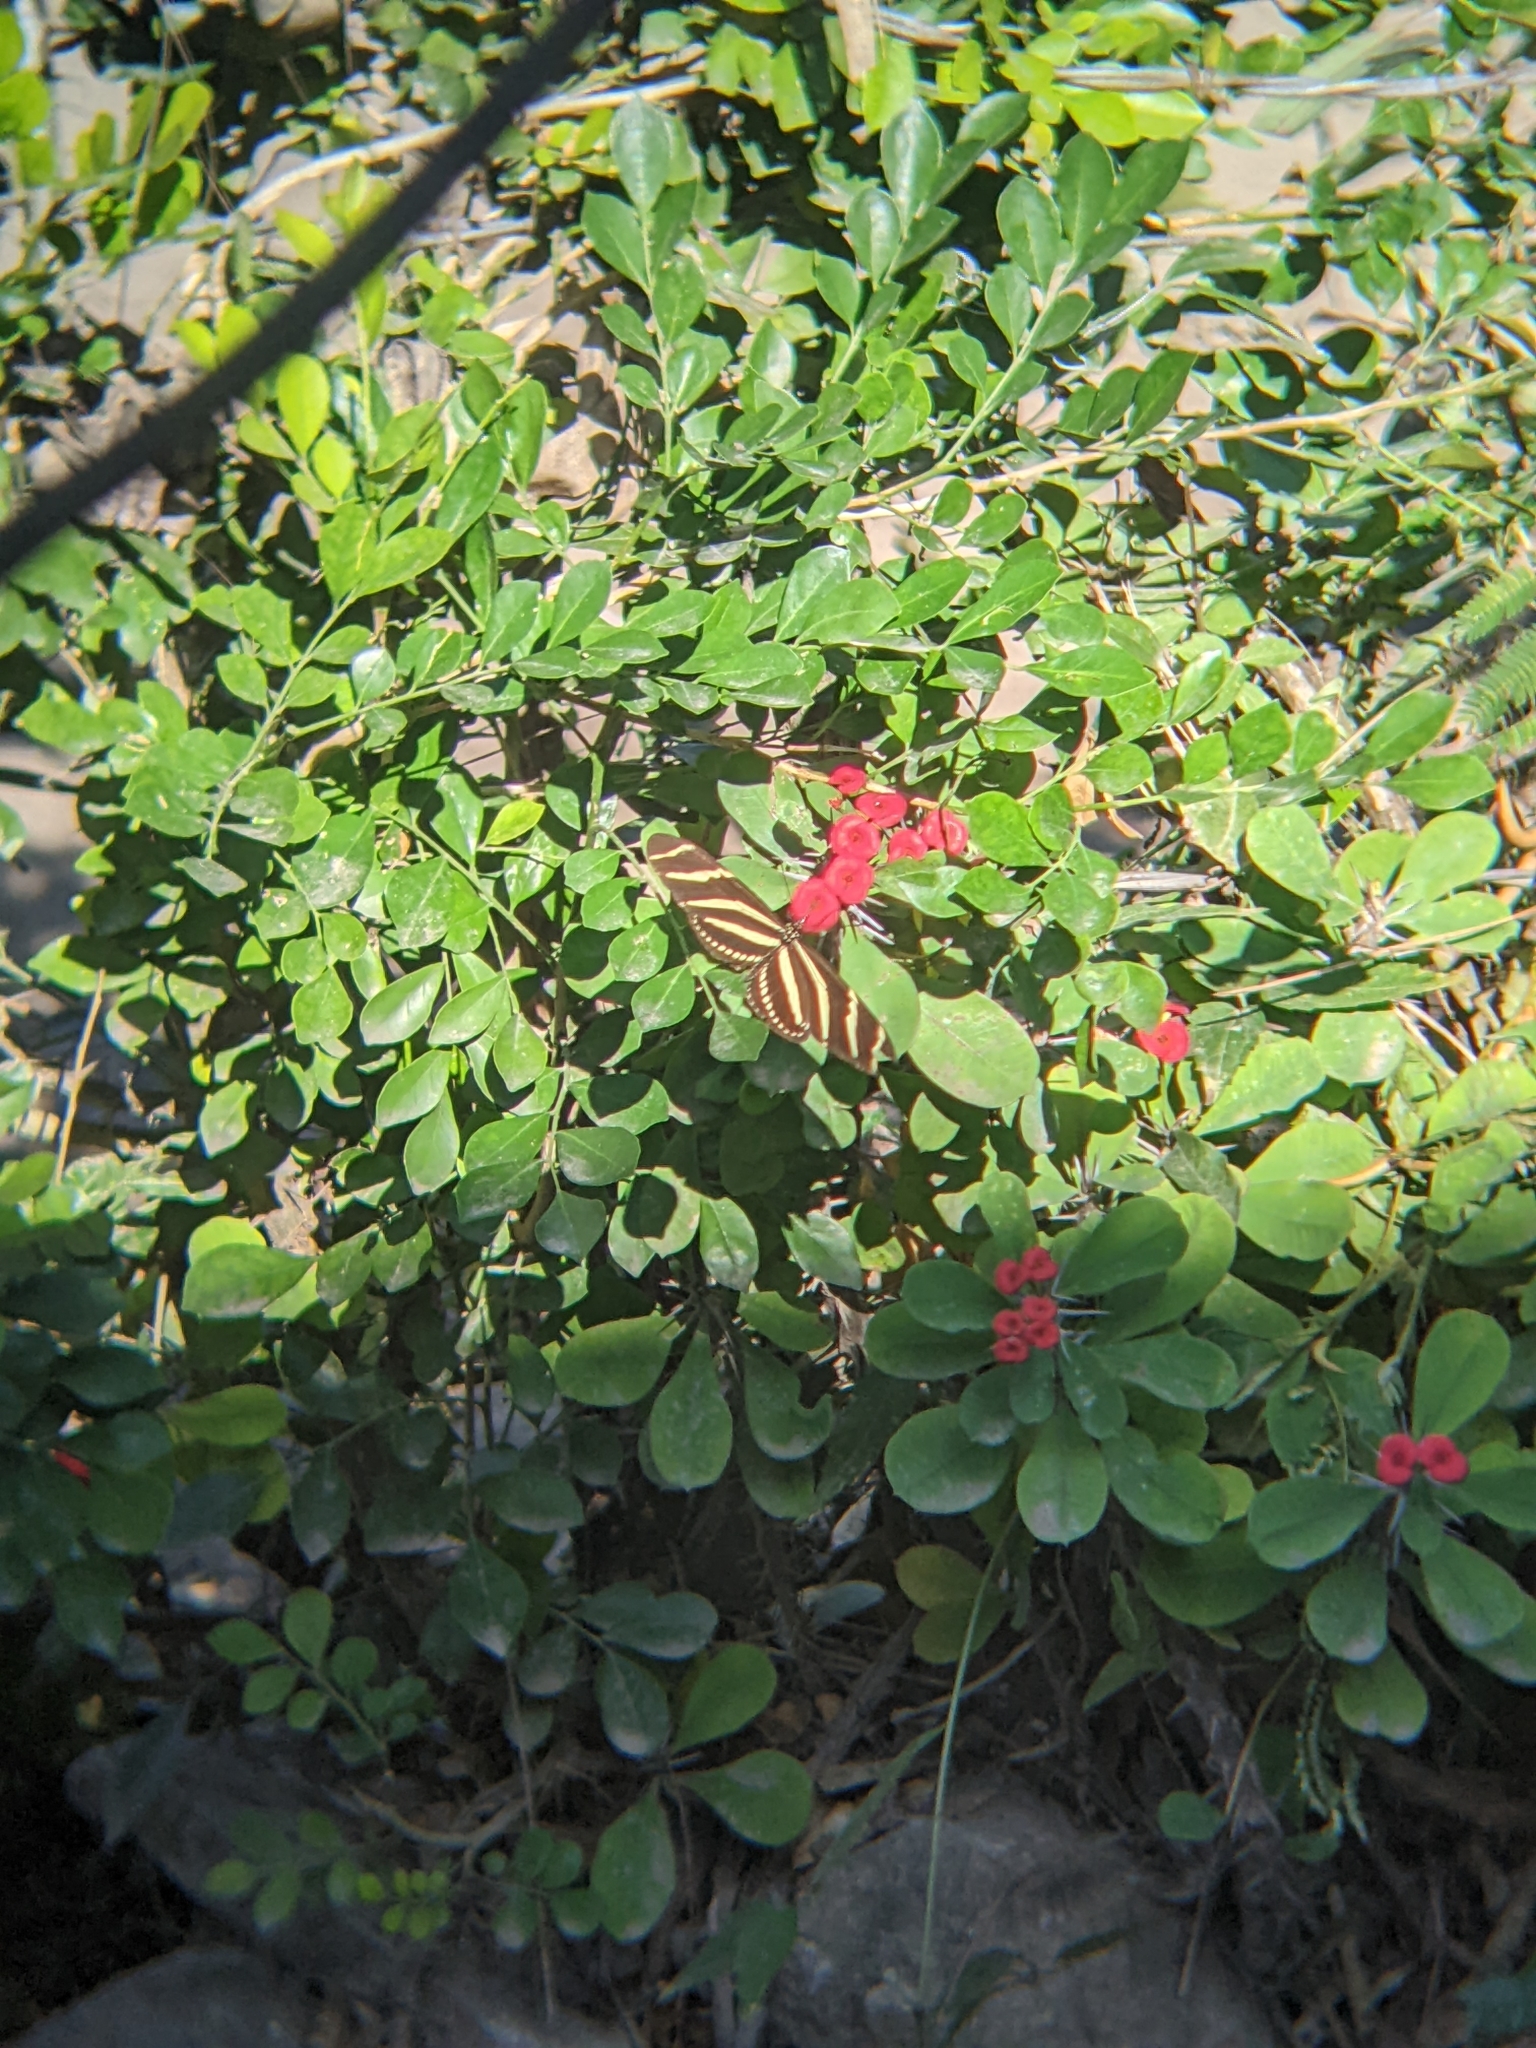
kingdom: Animalia
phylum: Arthropoda
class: Insecta
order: Lepidoptera
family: Nymphalidae
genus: Heliconius
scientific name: Heliconius charithonia
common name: Zebra long wing
